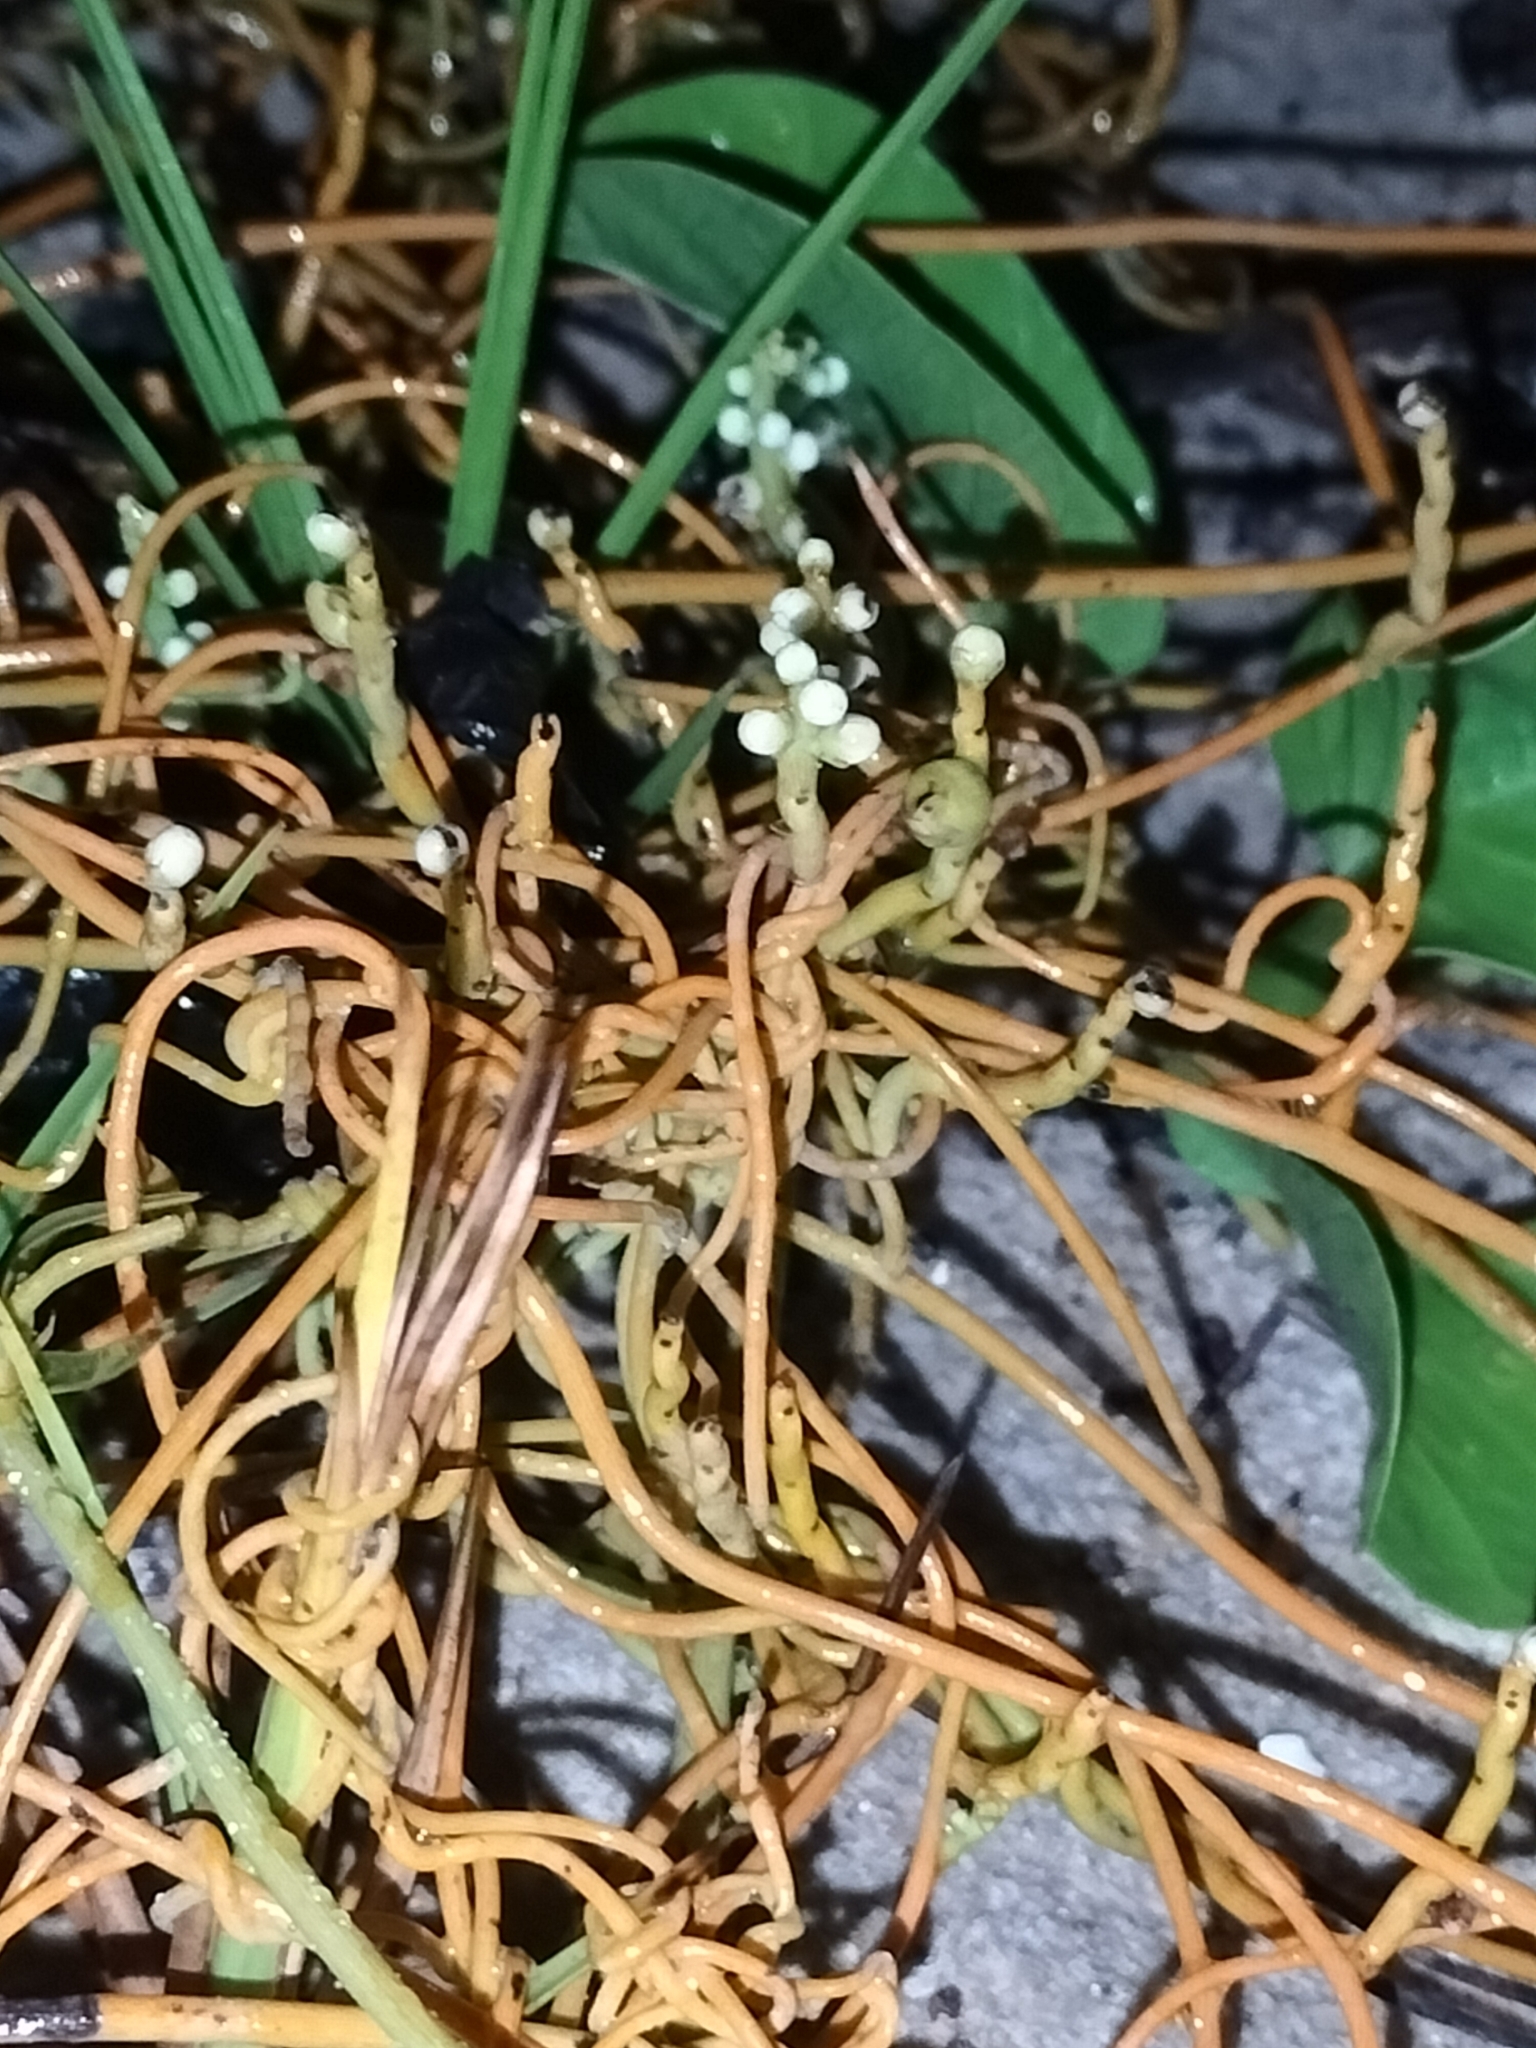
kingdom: Plantae
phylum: Tracheophyta
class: Magnoliopsida
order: Laurales
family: Lauraceae
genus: Cassytha
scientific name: Cassytha filiformis
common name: Dodder-laurel
